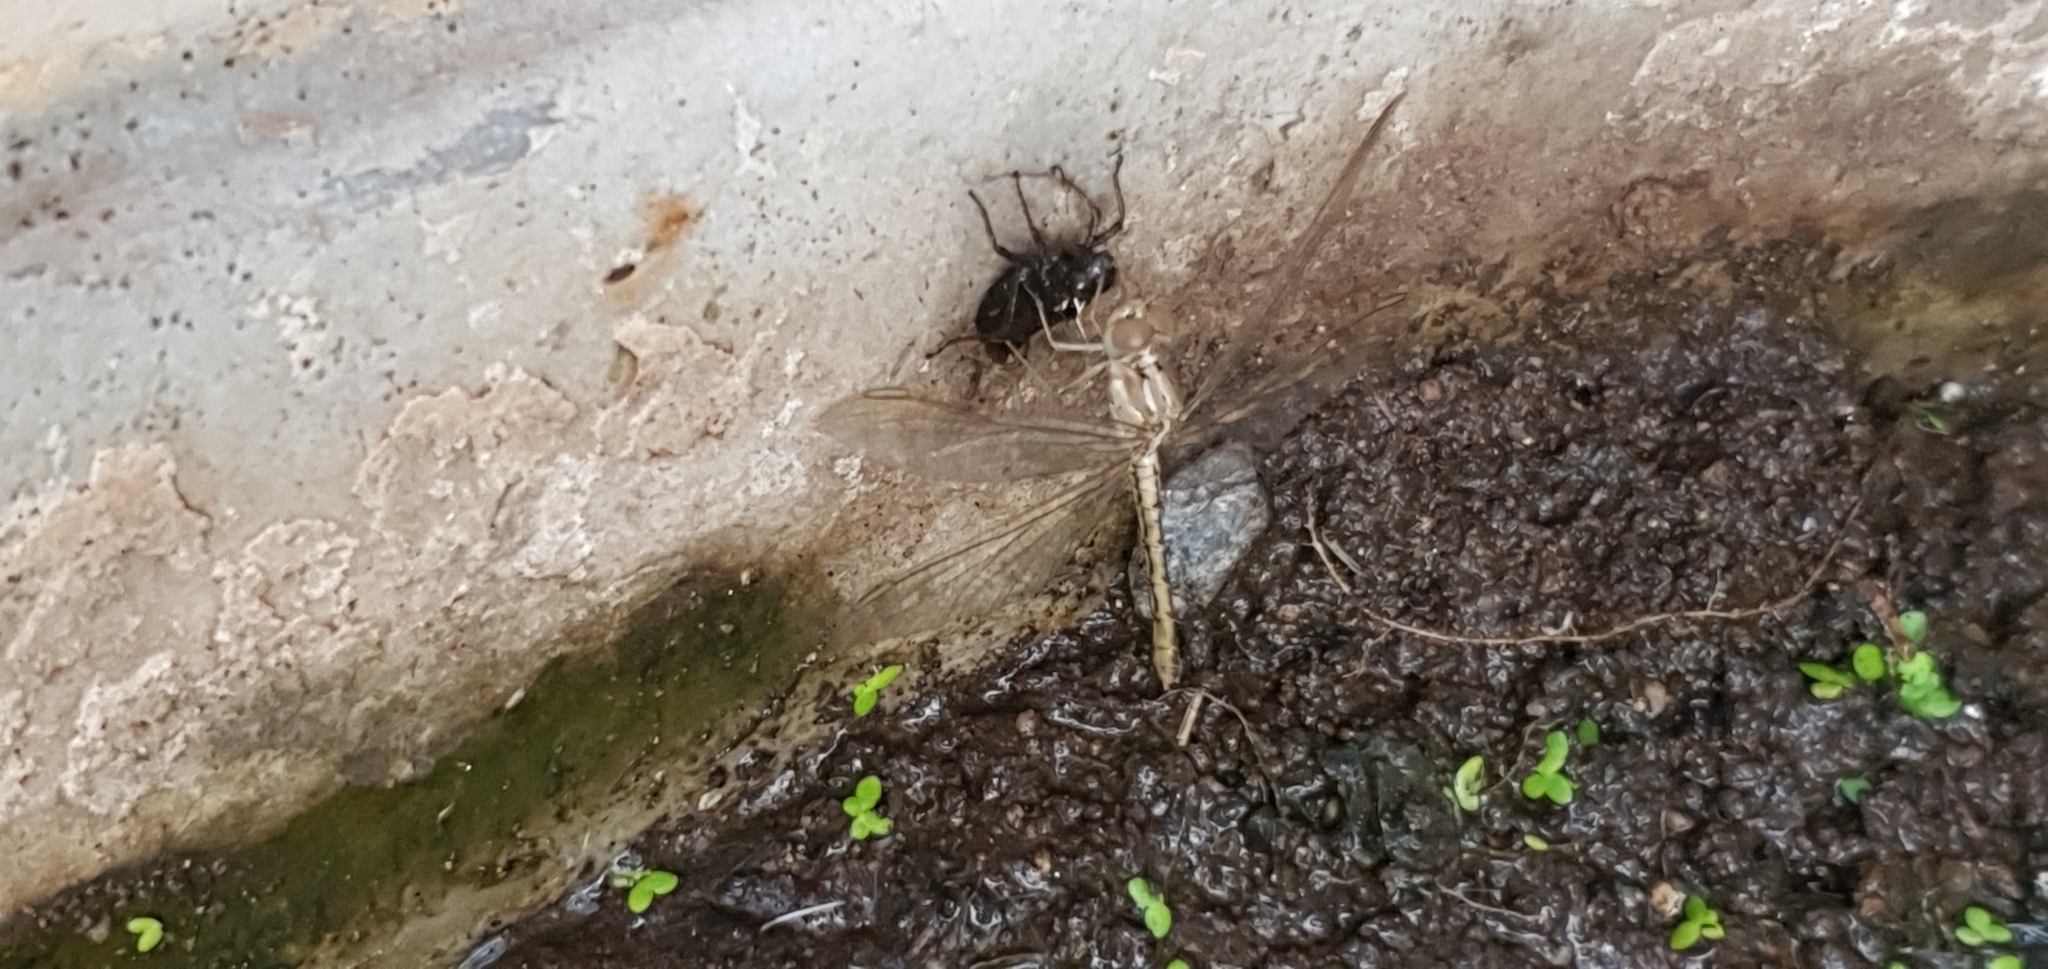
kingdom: Animalia
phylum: Arthropoda
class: Insecta
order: Odonata
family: Libellulidae
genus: Diplacodes
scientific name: Diplacodes haematodes
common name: Scarlet percher
